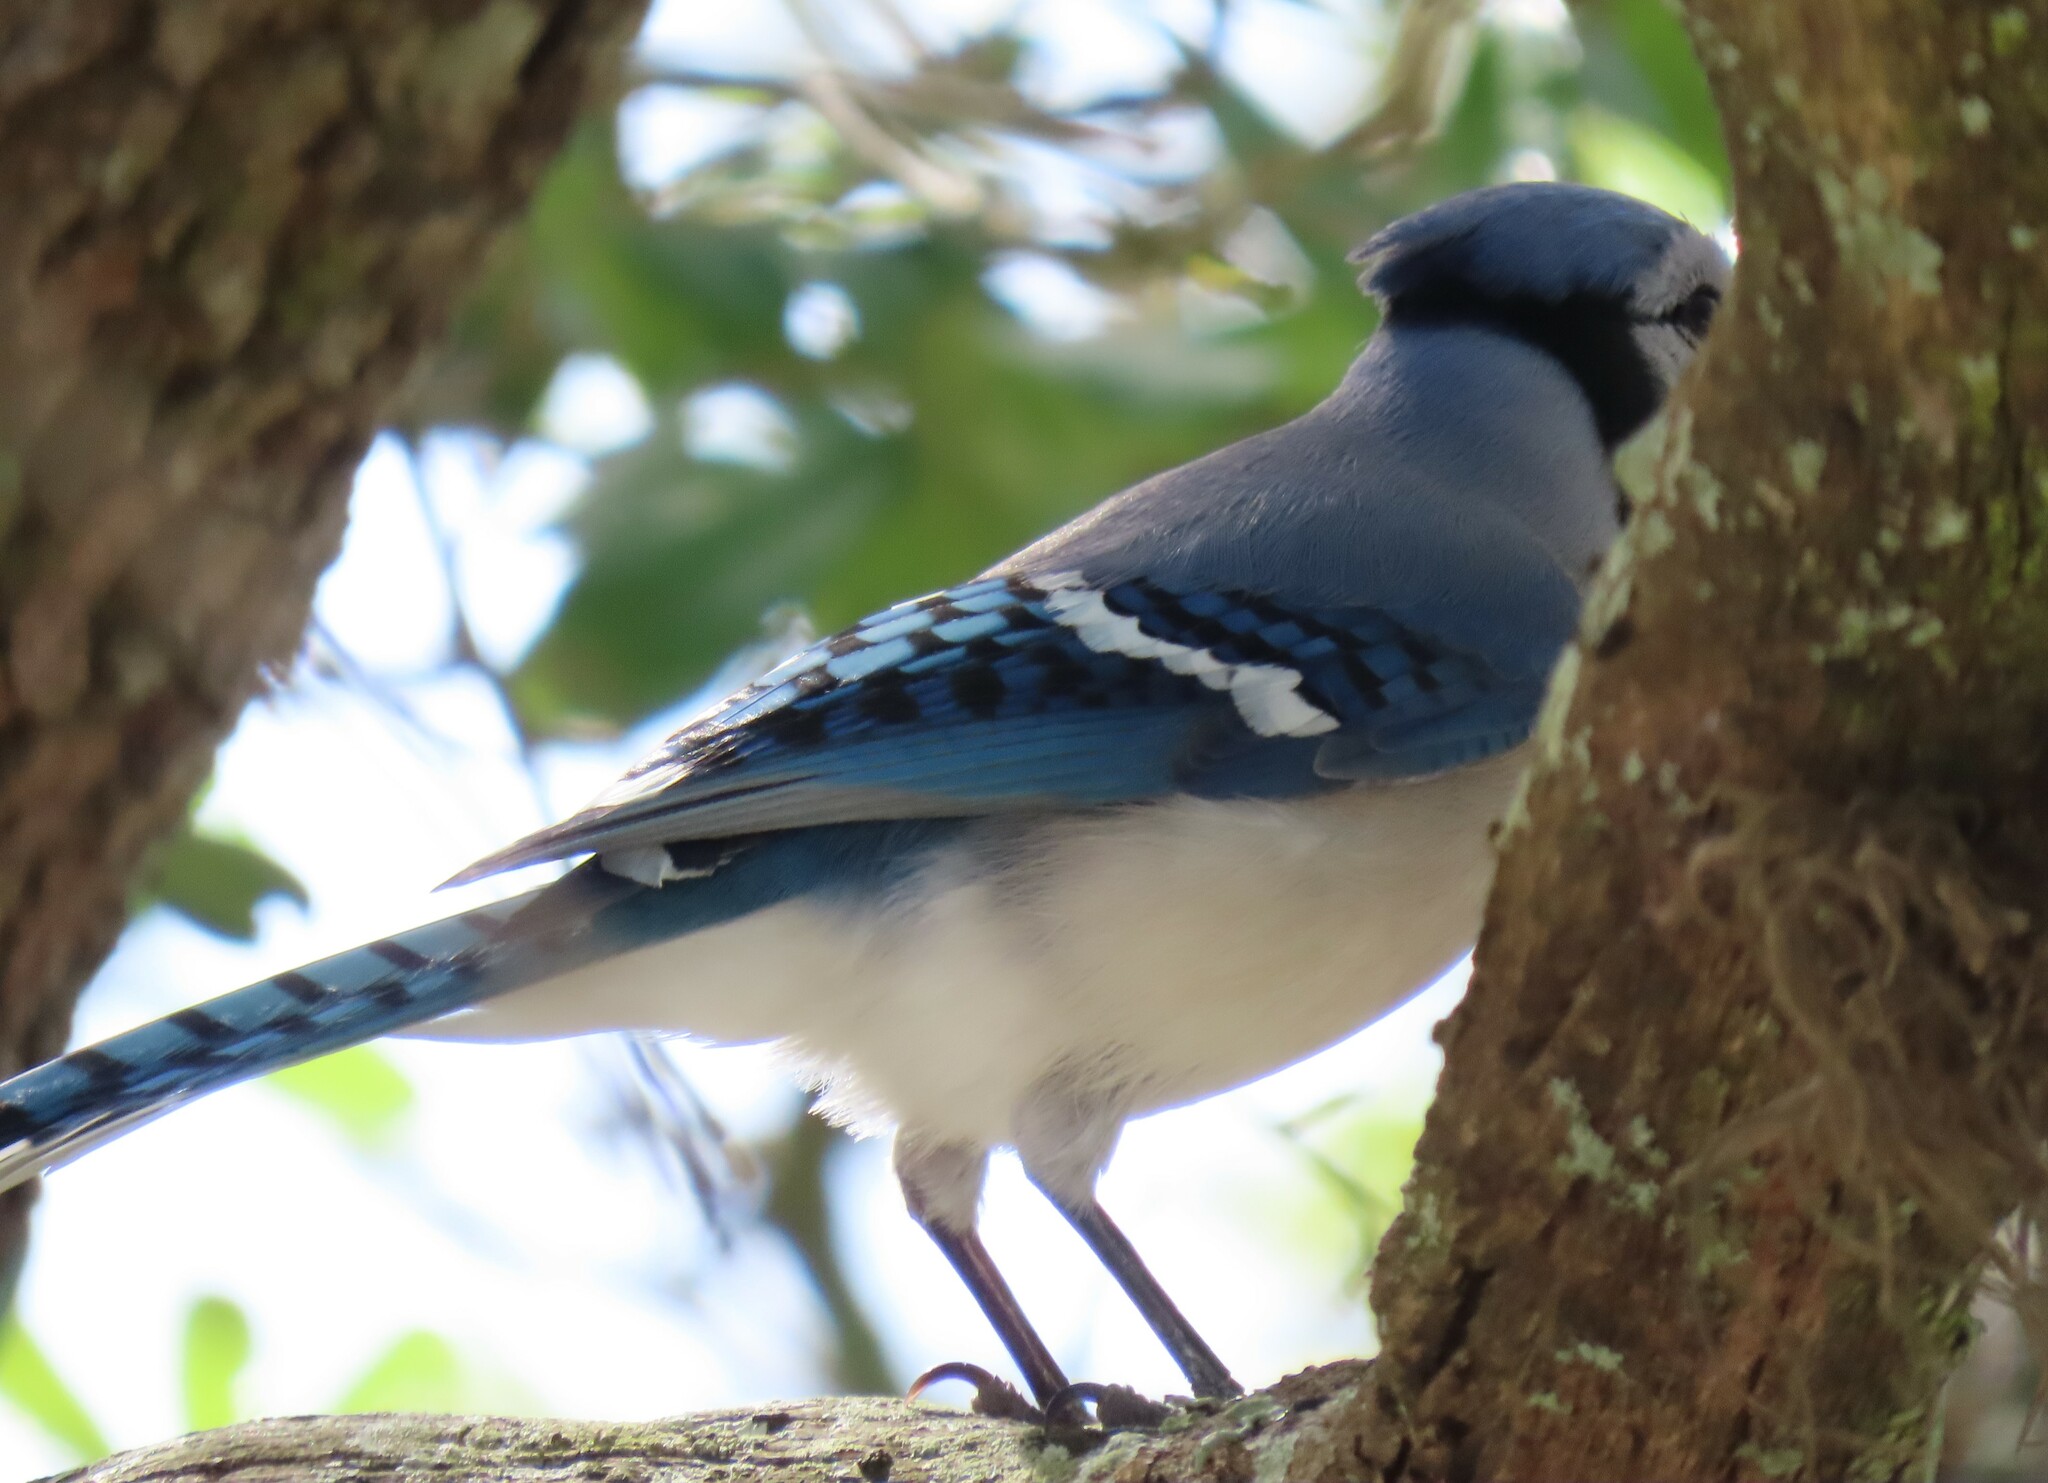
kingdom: Animalia
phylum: Chordata
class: Aves
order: Passeriformes
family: Corvidae
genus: Cyanocitta
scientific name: Cyanocitta cristata
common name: Blue jay
